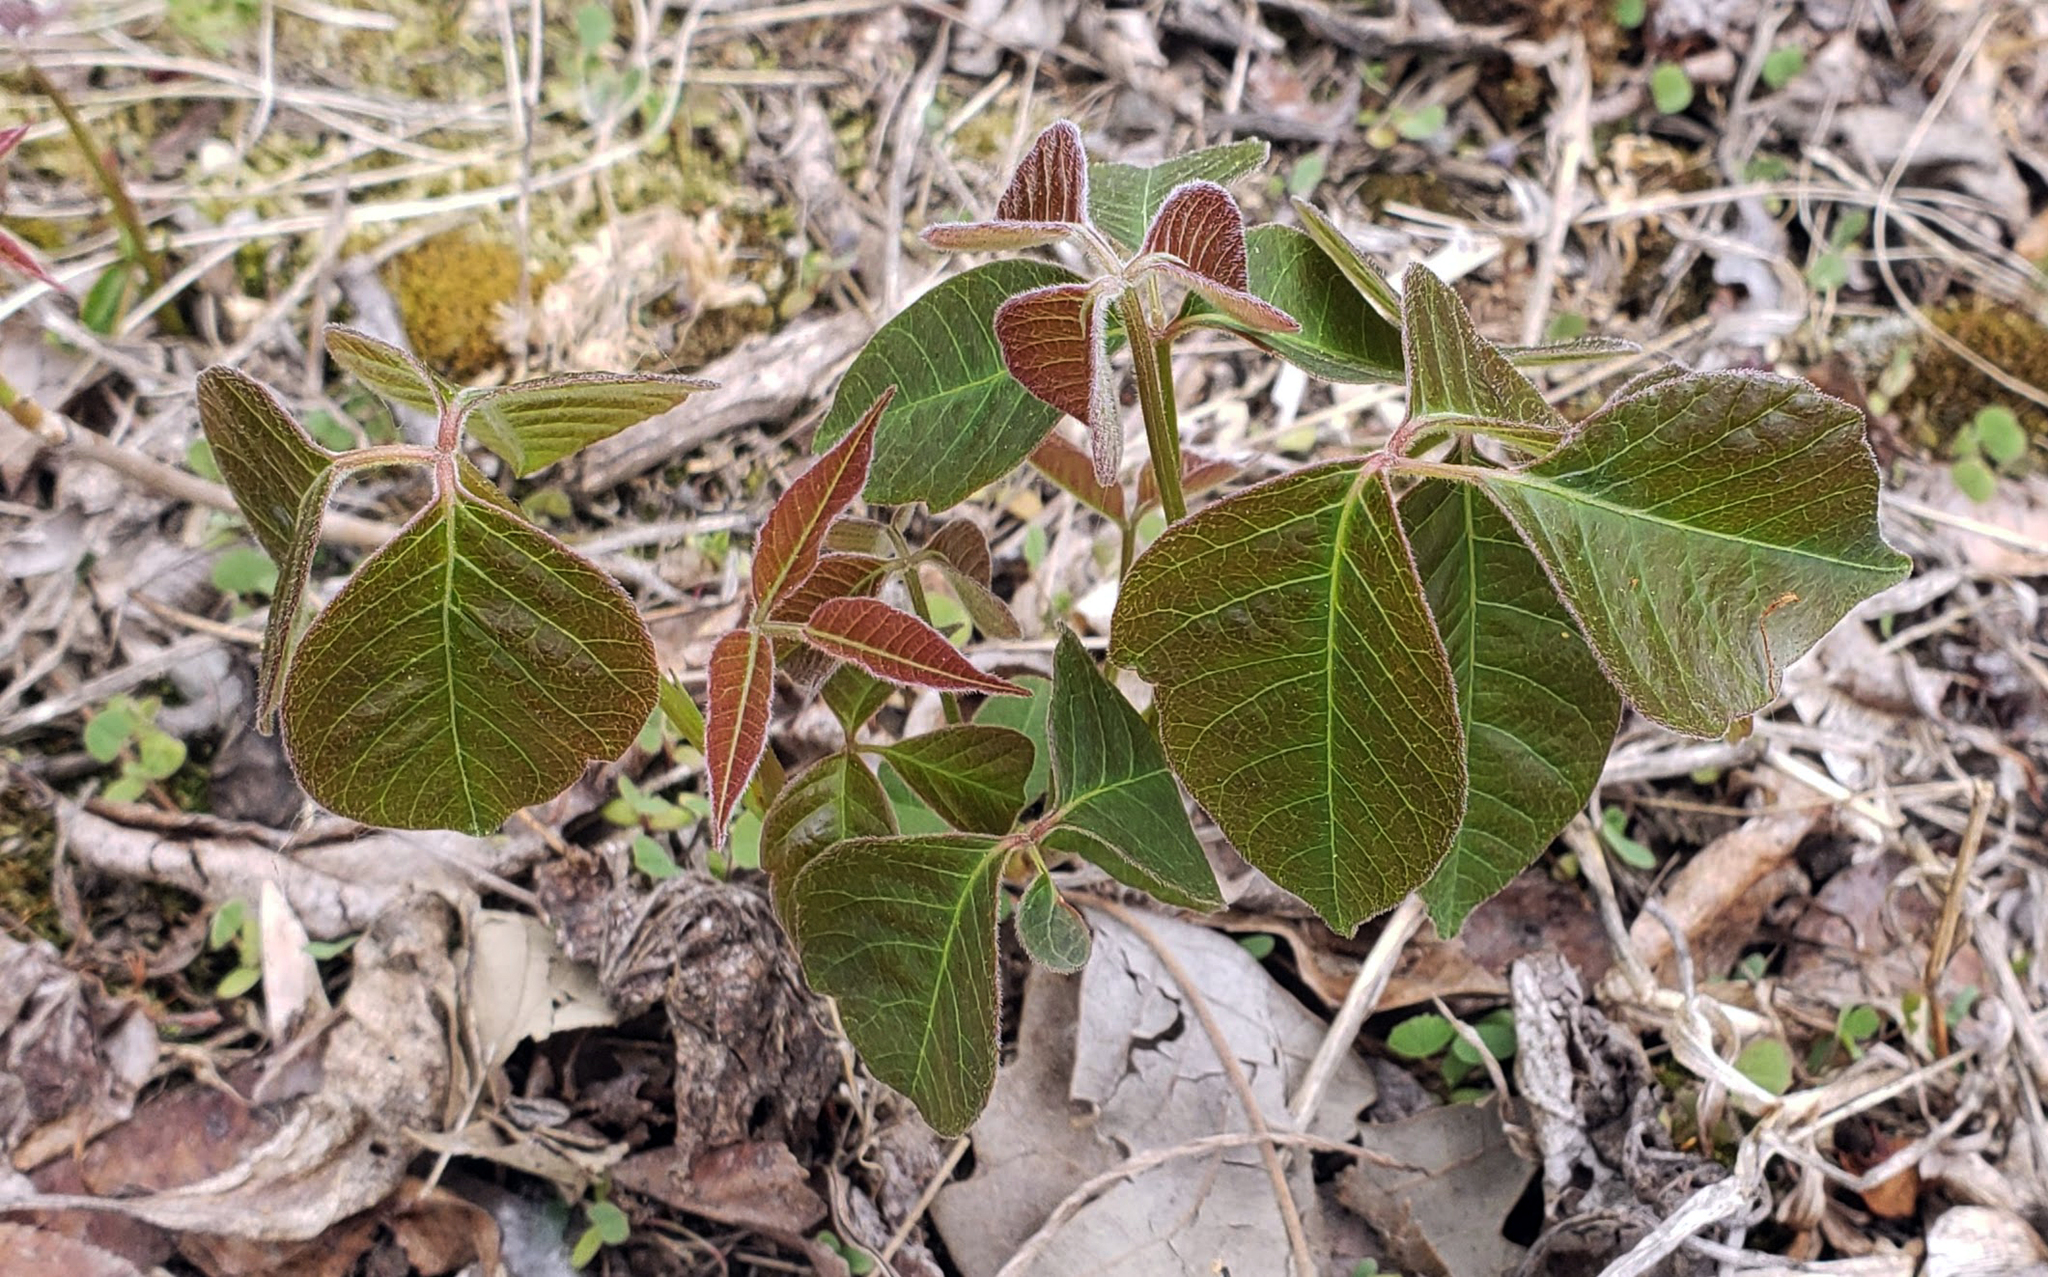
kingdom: Plantae
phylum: Tracheophyta
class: Magnoliopsida
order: Sapindales
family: Anacardiaceae
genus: Toxicodendron
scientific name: Toxicodendron rydbergii
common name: Rydberg's poison-ivy
